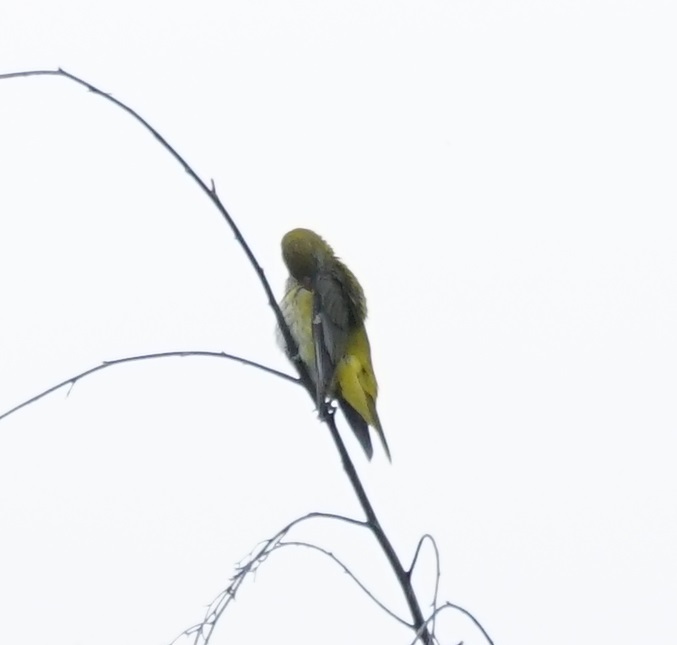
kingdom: Plantae
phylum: Tracheophyta
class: Liliopsida
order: Poales
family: Poaceae
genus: Chloris
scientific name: Chloris chloris
